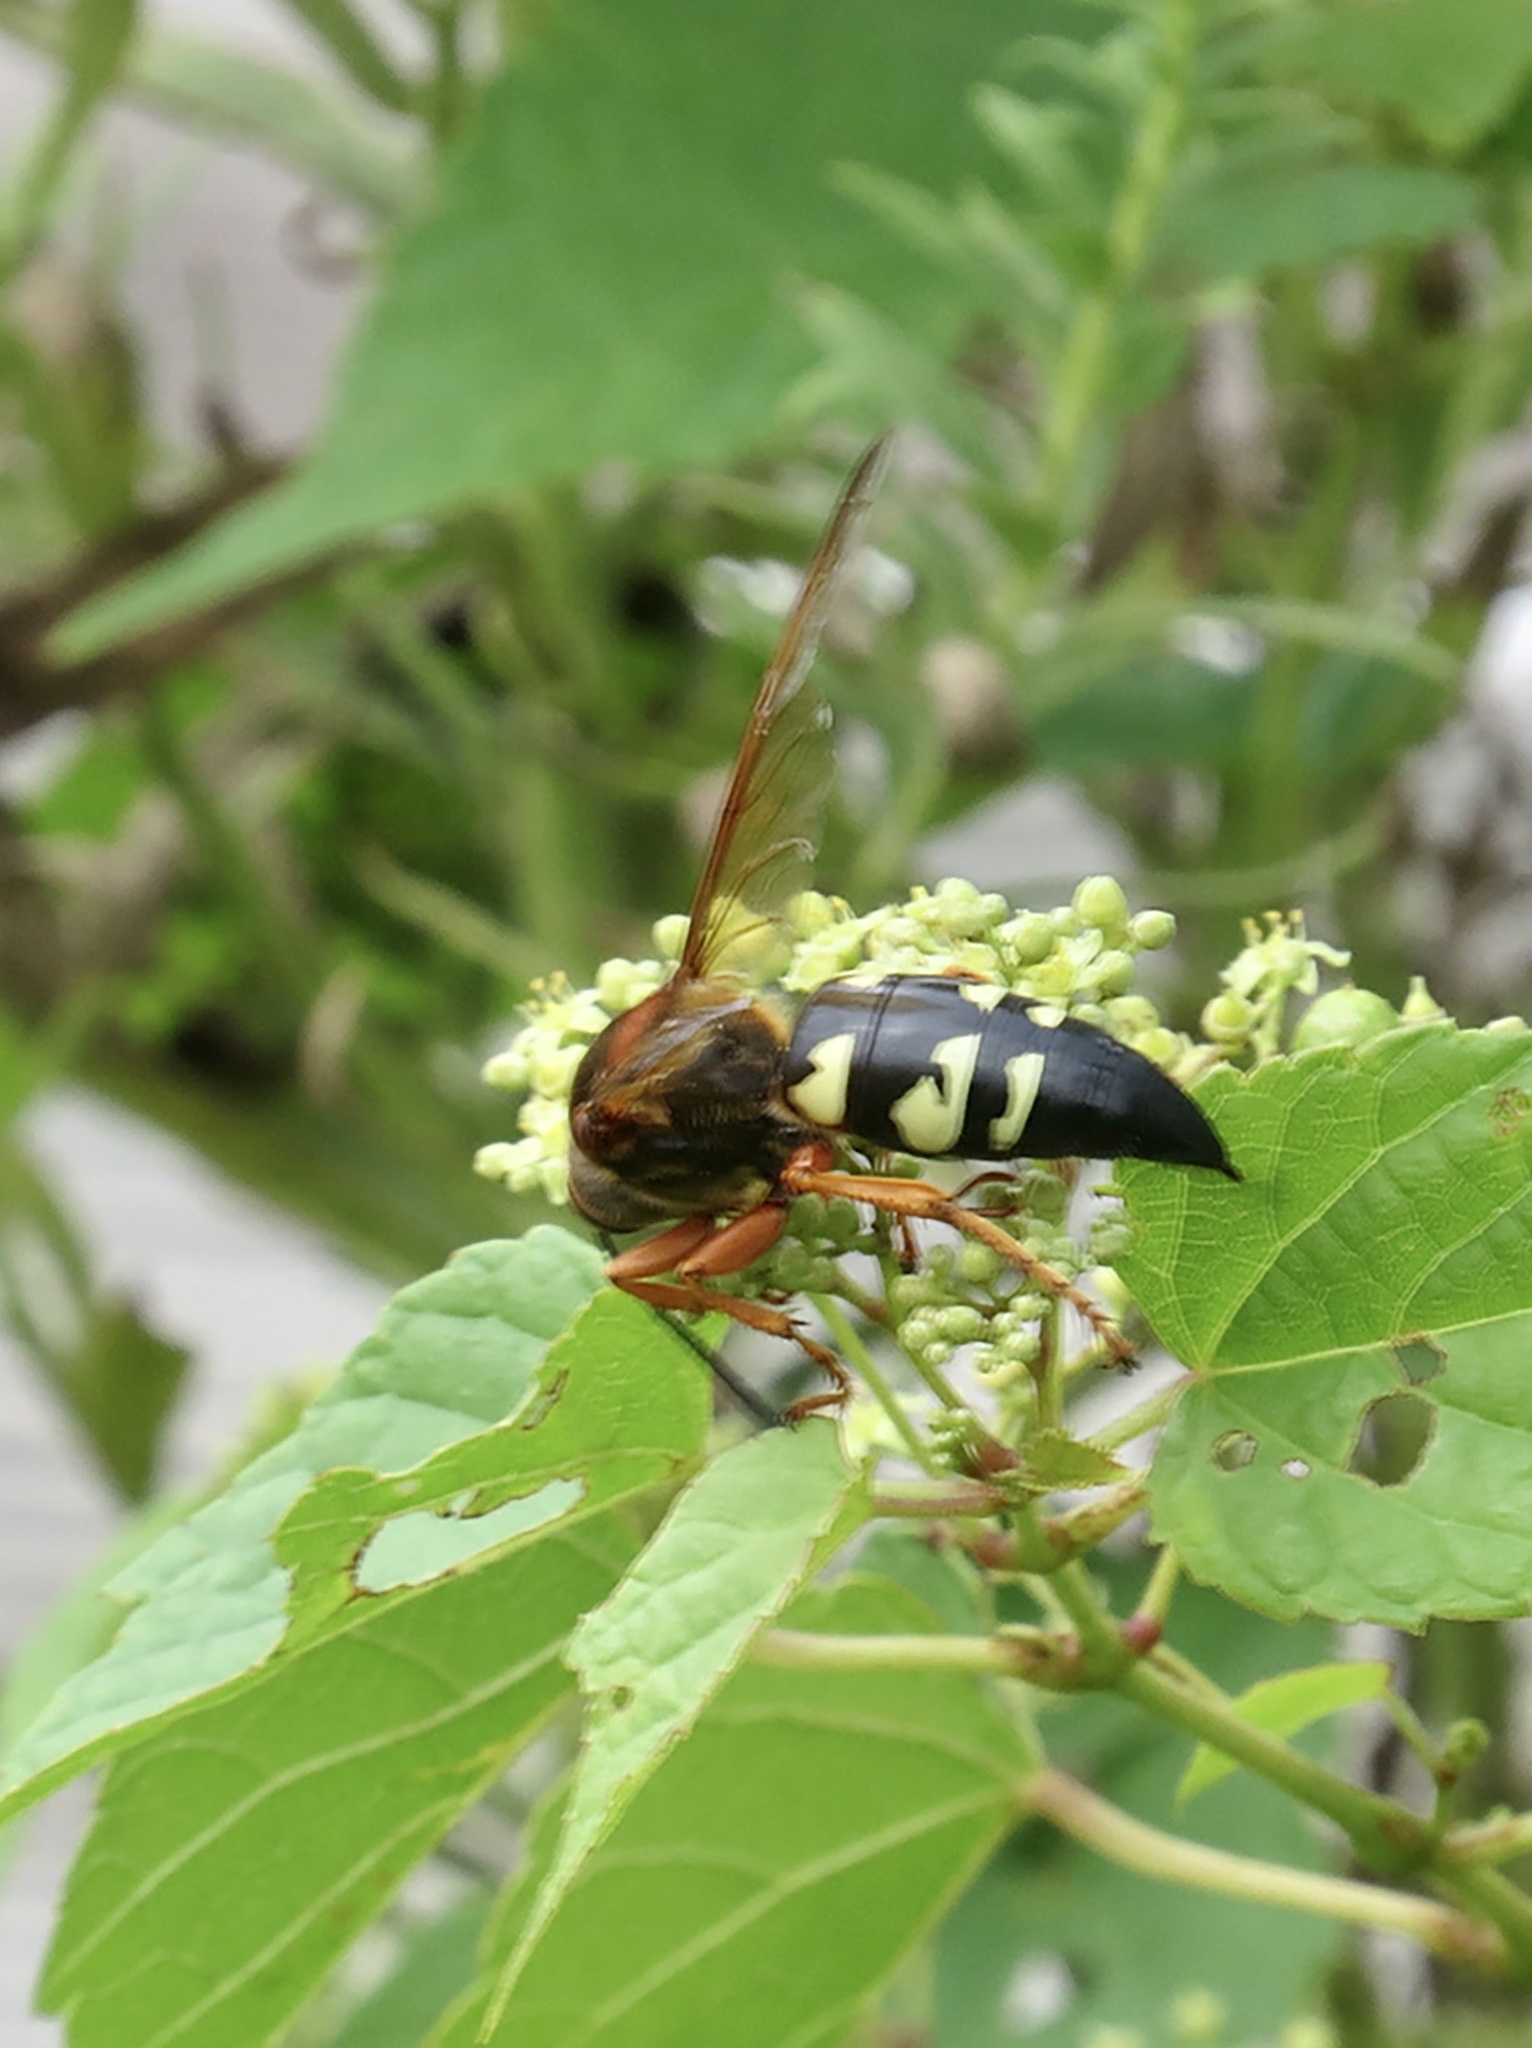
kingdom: Animalia
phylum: Arthropoda
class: Insecta
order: Hymenoptera
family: Crabronidae
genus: Sphecius
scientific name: Sphecius speciosus
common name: Cicada killer
